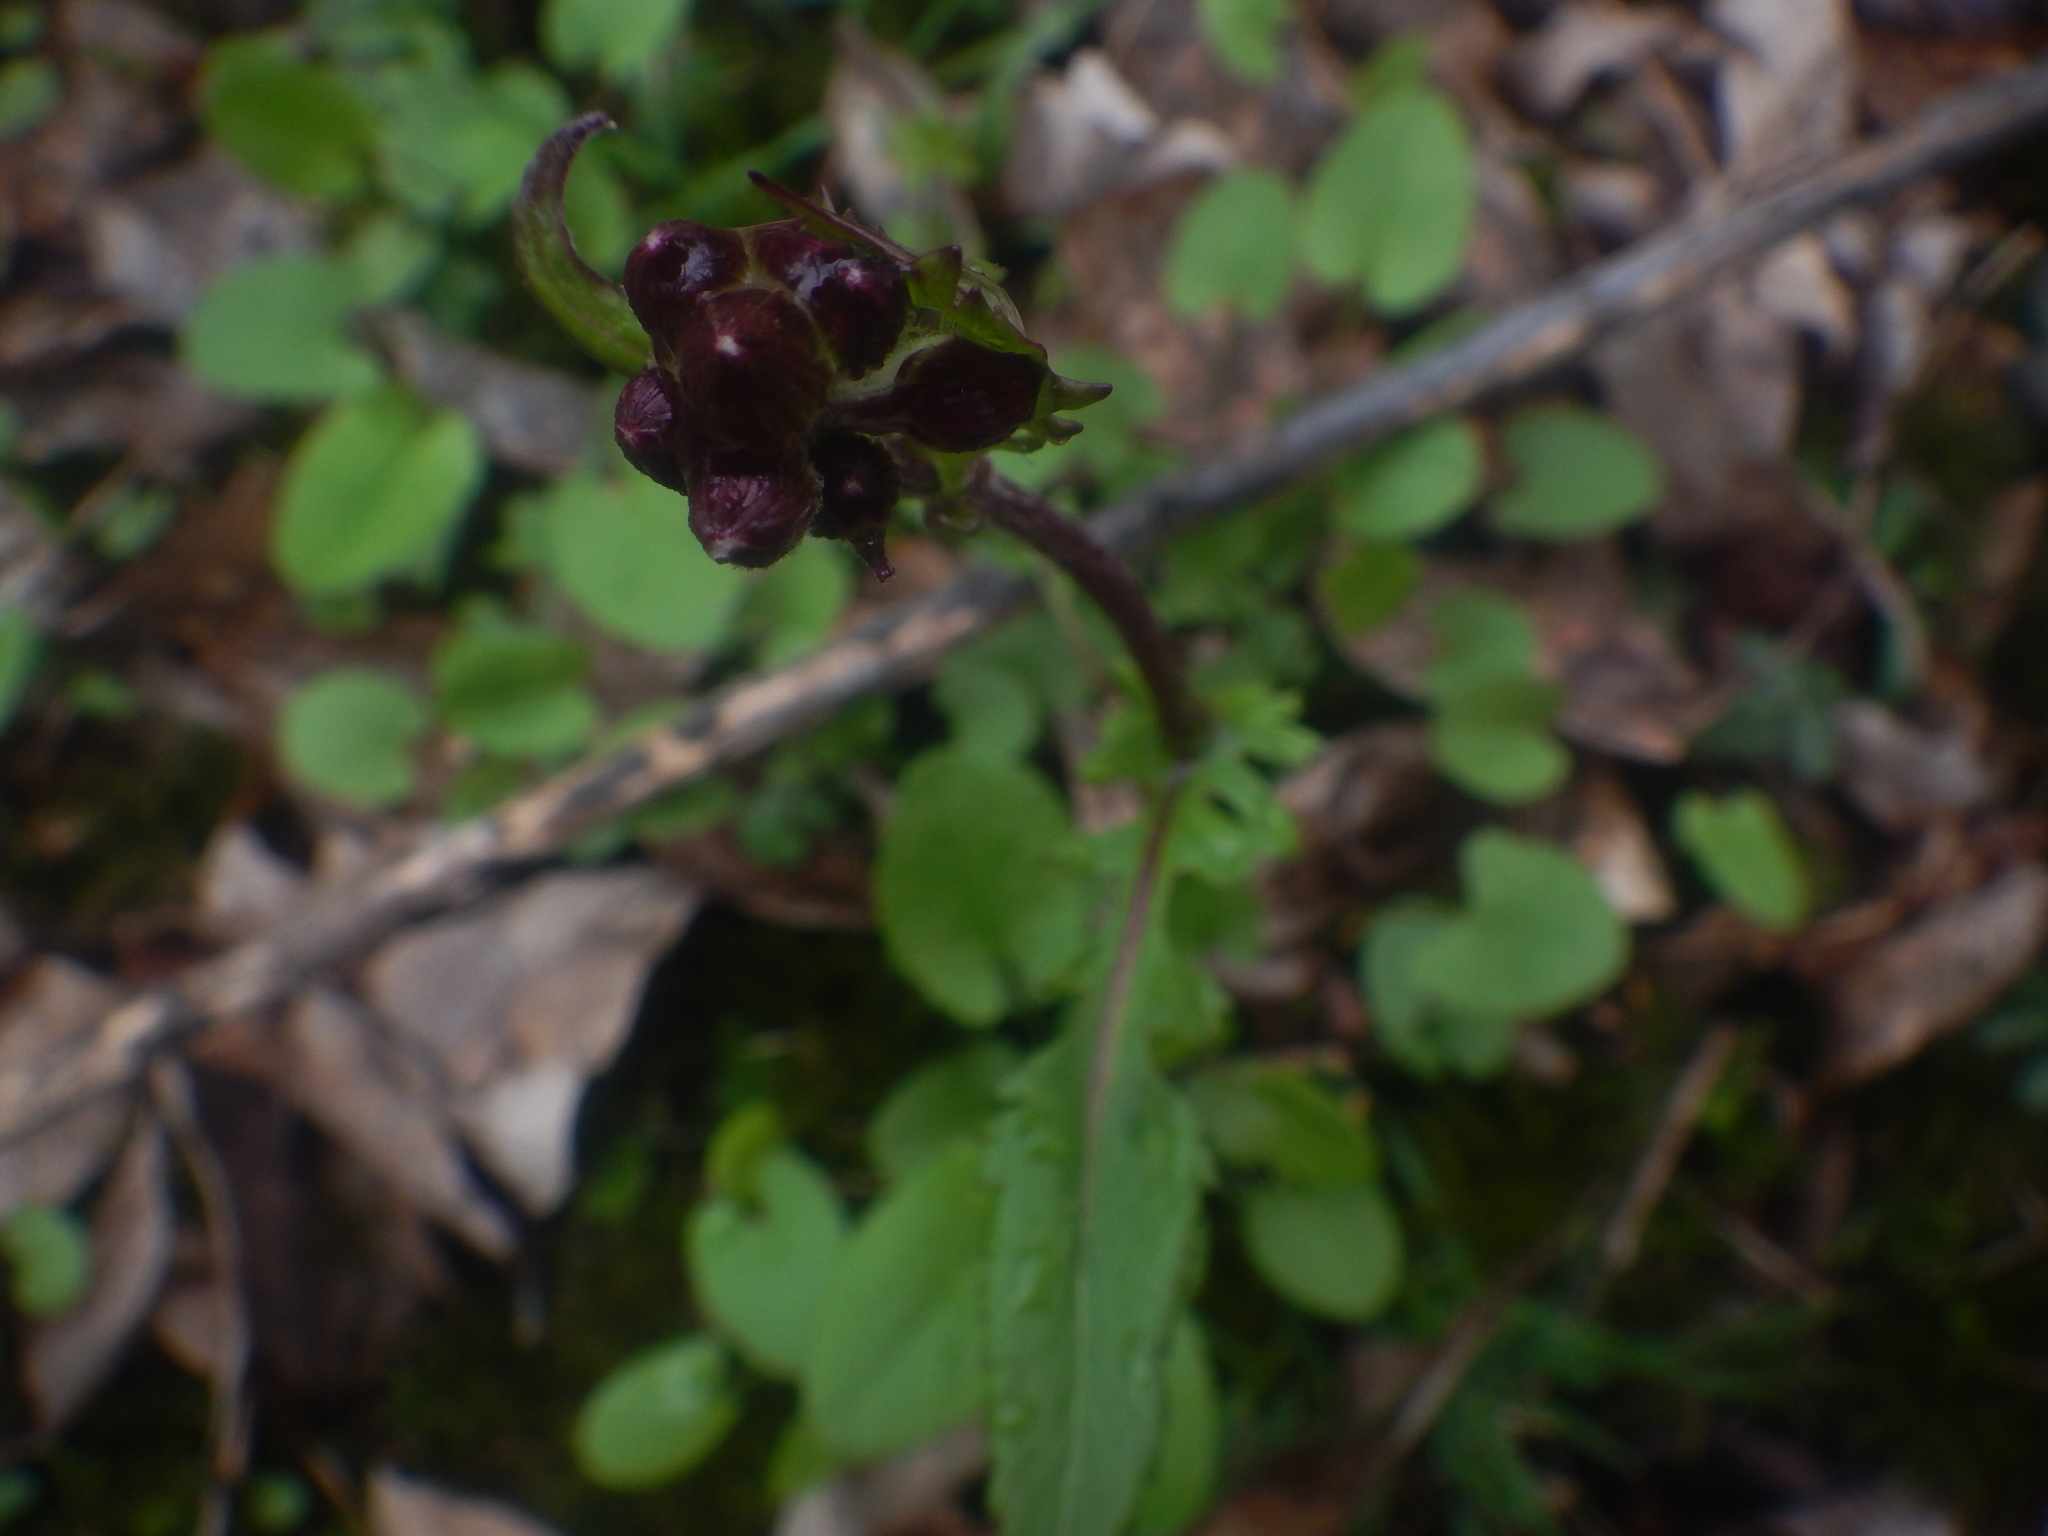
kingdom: Plantae
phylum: Tracheophyta
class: Magnoliopsida
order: Asterales
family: Asteraceae
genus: Packera
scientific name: Packera aurea
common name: Golden groundsel
